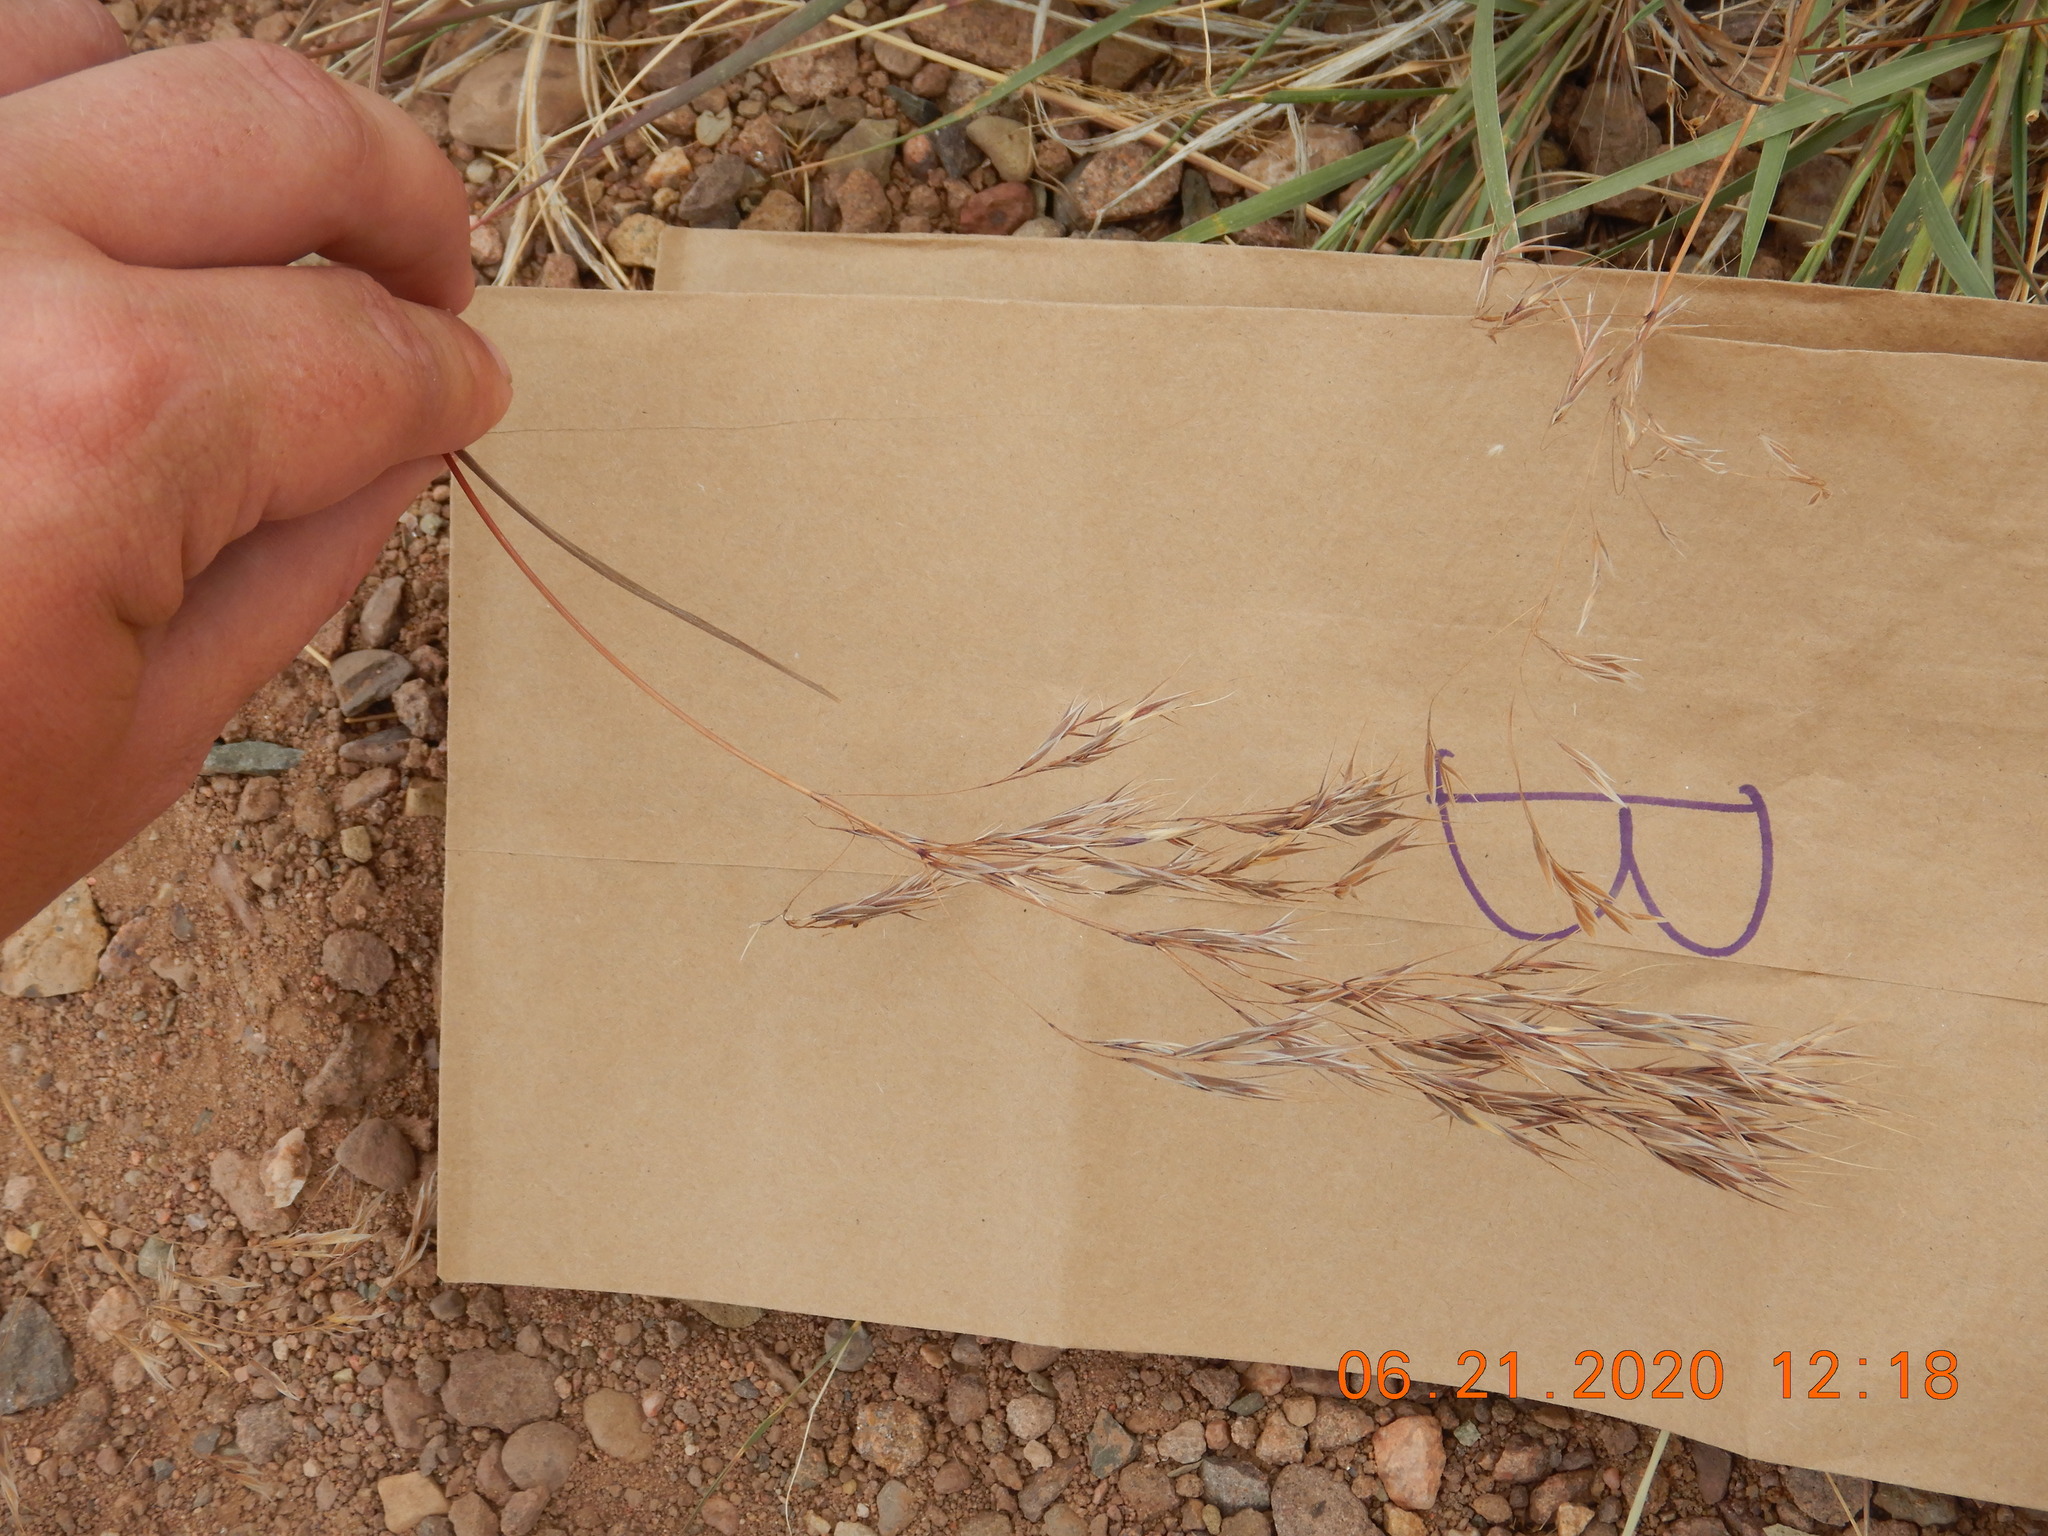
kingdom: Plantae
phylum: Tracheophyta
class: Liliopsida
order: Poales
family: Poaceae
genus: Bromus
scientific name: Bromus tectorum
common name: Cheatgrass
